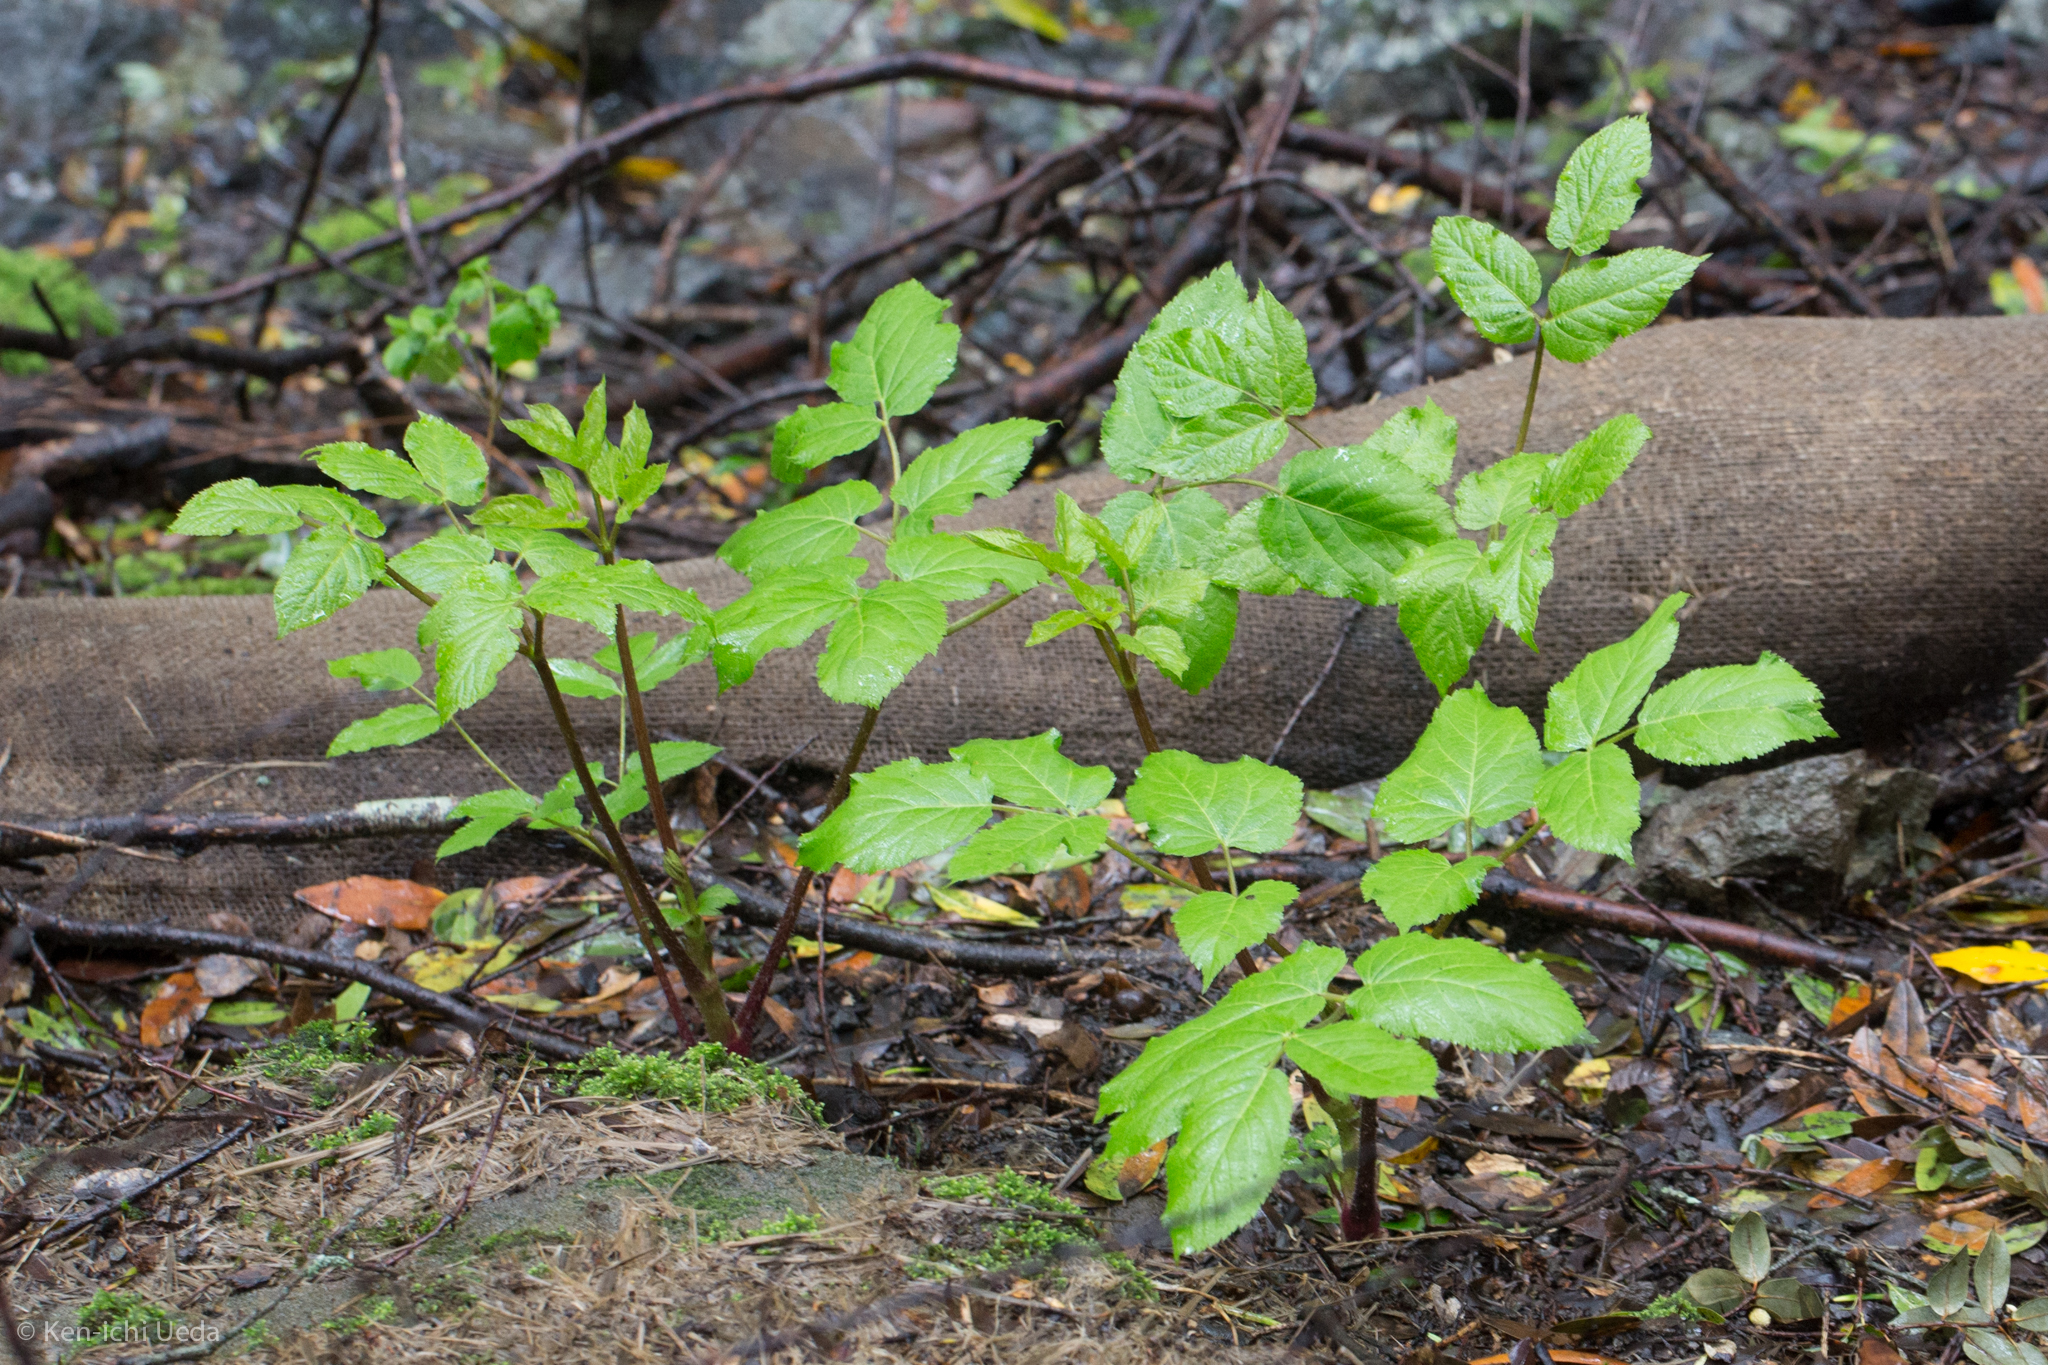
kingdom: Plantae
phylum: Tracheophyta
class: Magnoliopsida
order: Apiales
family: Araliaceae
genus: Aralia
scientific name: Aralia californica
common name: California-ginseng
